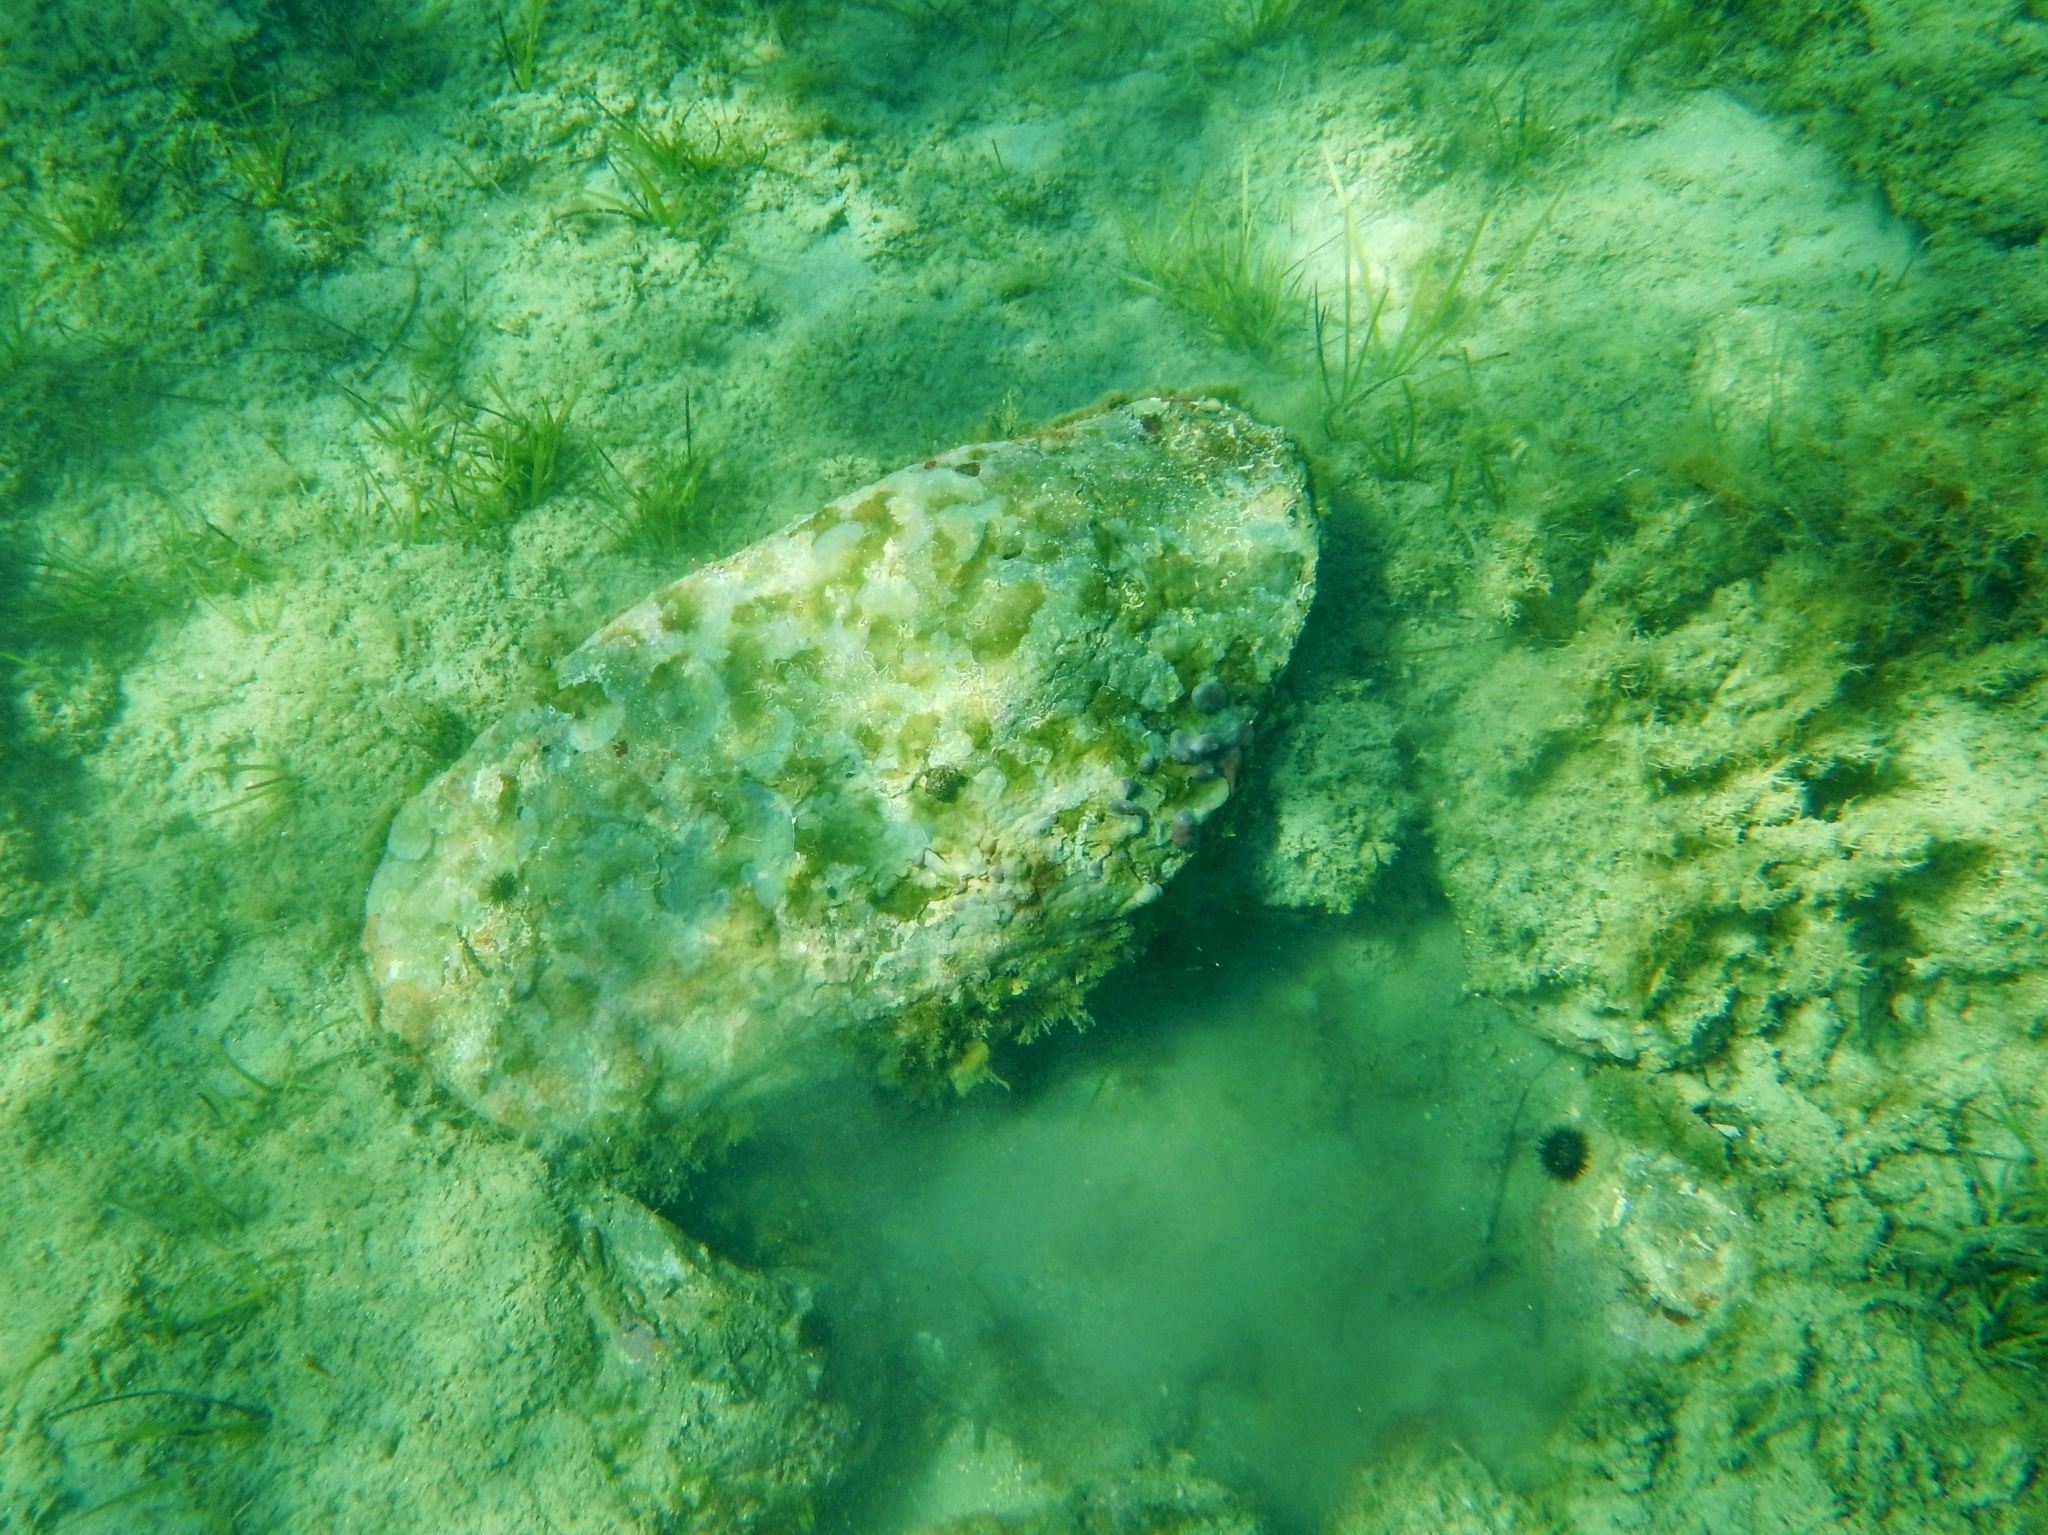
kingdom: Animalia
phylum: Porifera
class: Demospongiae
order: Chondrillida
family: Chondrillidae
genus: Chondrilla
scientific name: Chondrilla nucula
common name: Chicken liver sponge
